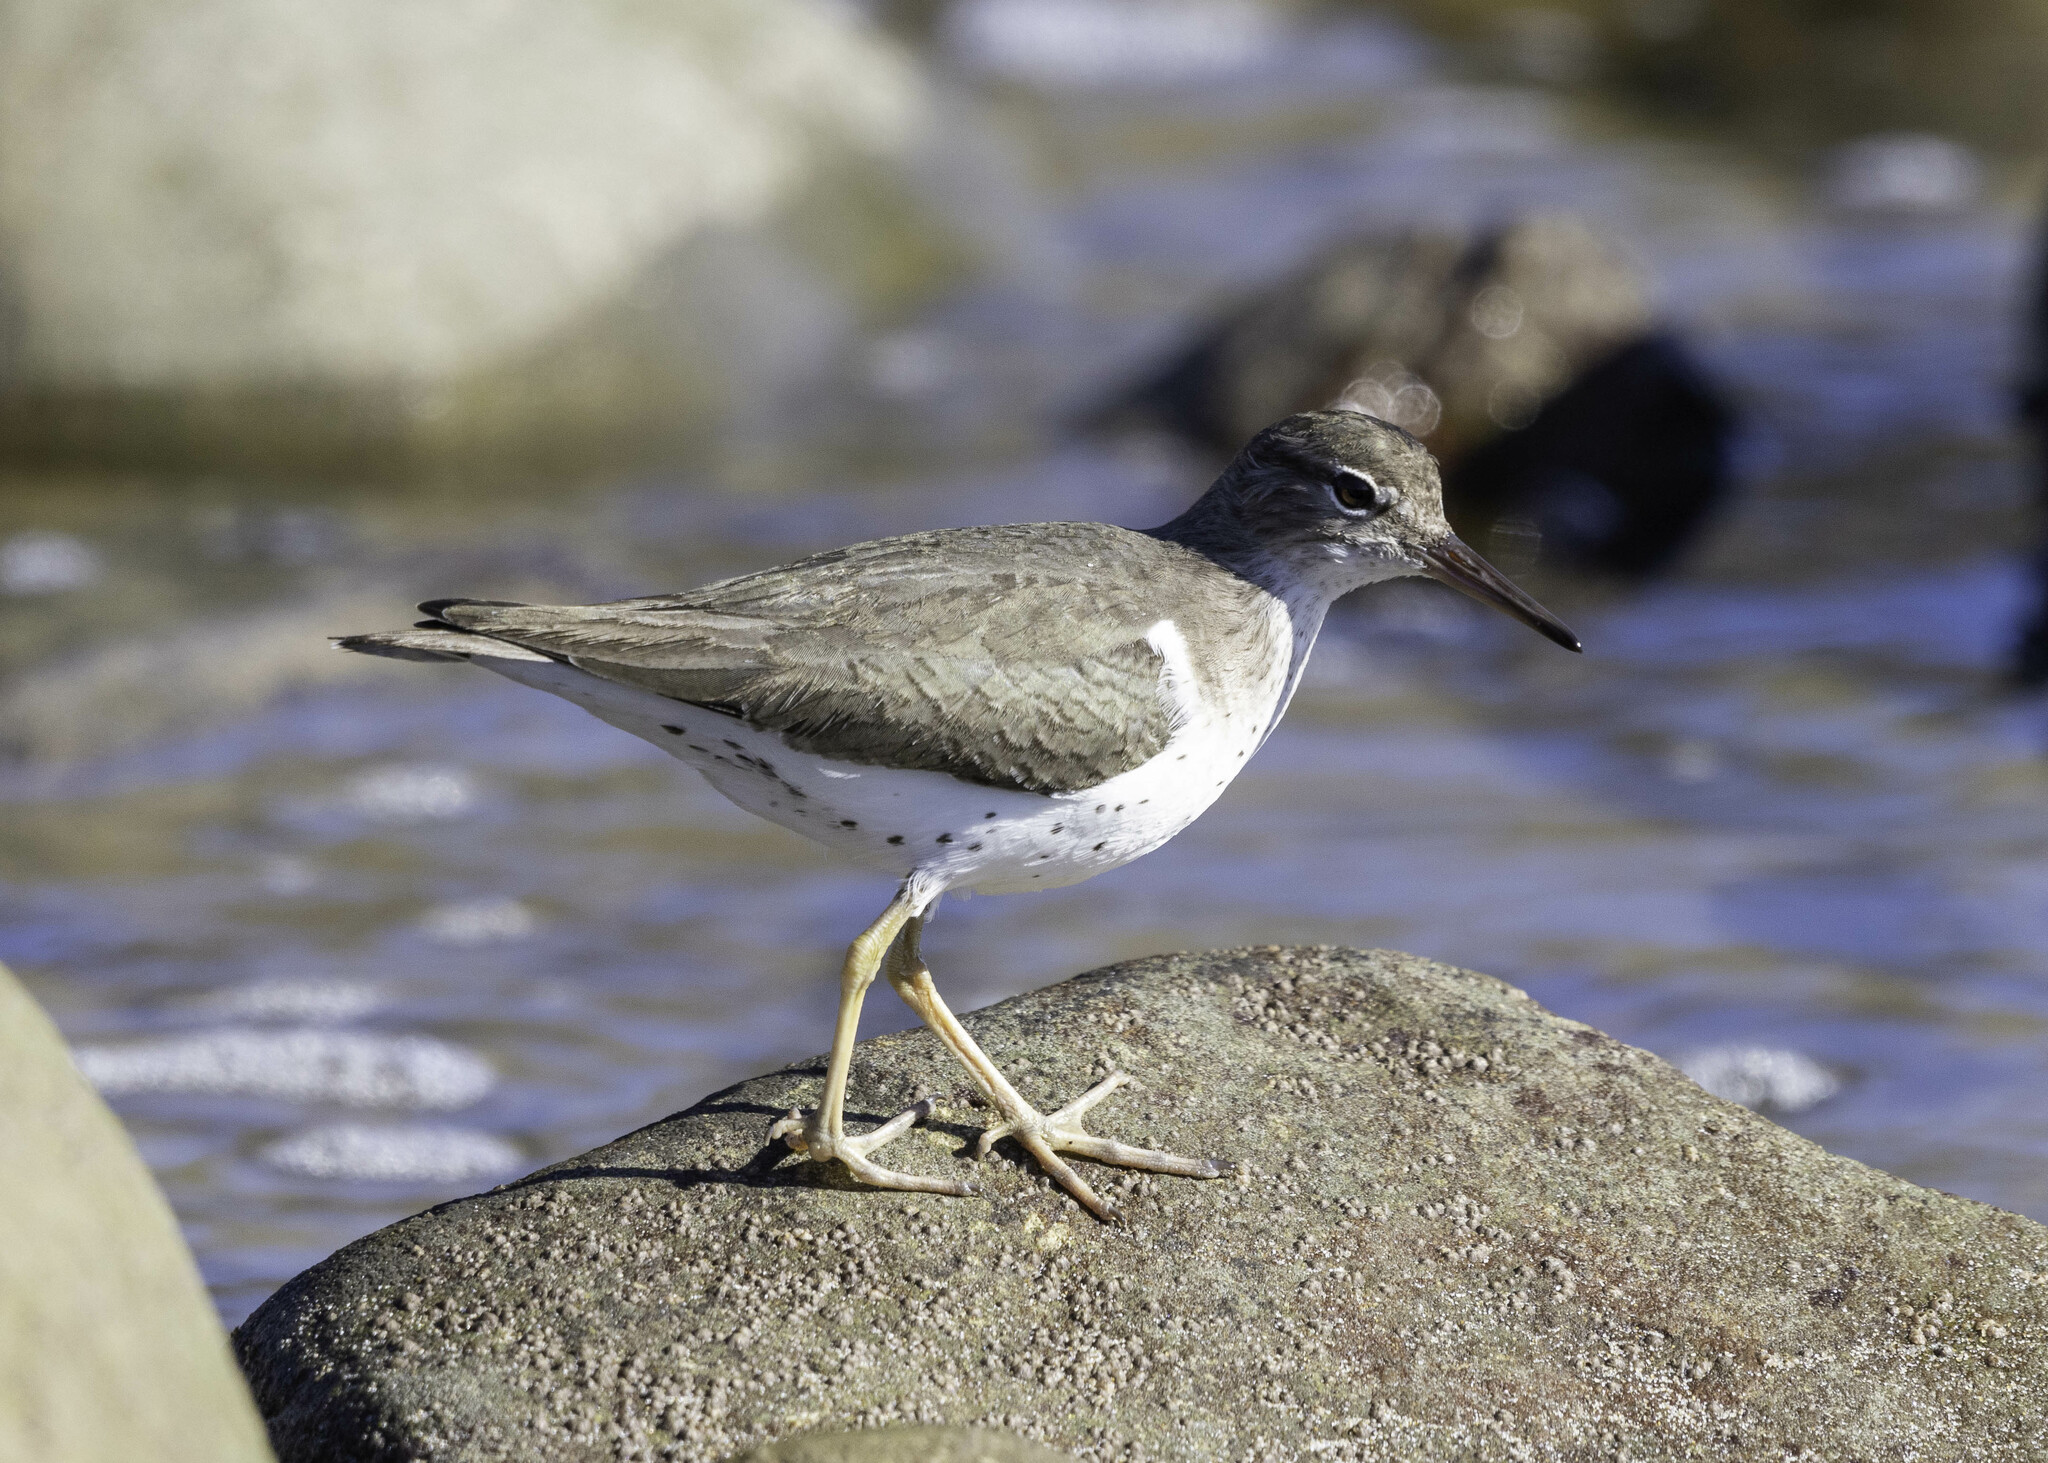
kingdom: Animalia
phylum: Chordata
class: Aves
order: Charadriiformes
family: Scolopacidae
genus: Actitis
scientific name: Actitis macularius
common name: Spotted sandpiper
